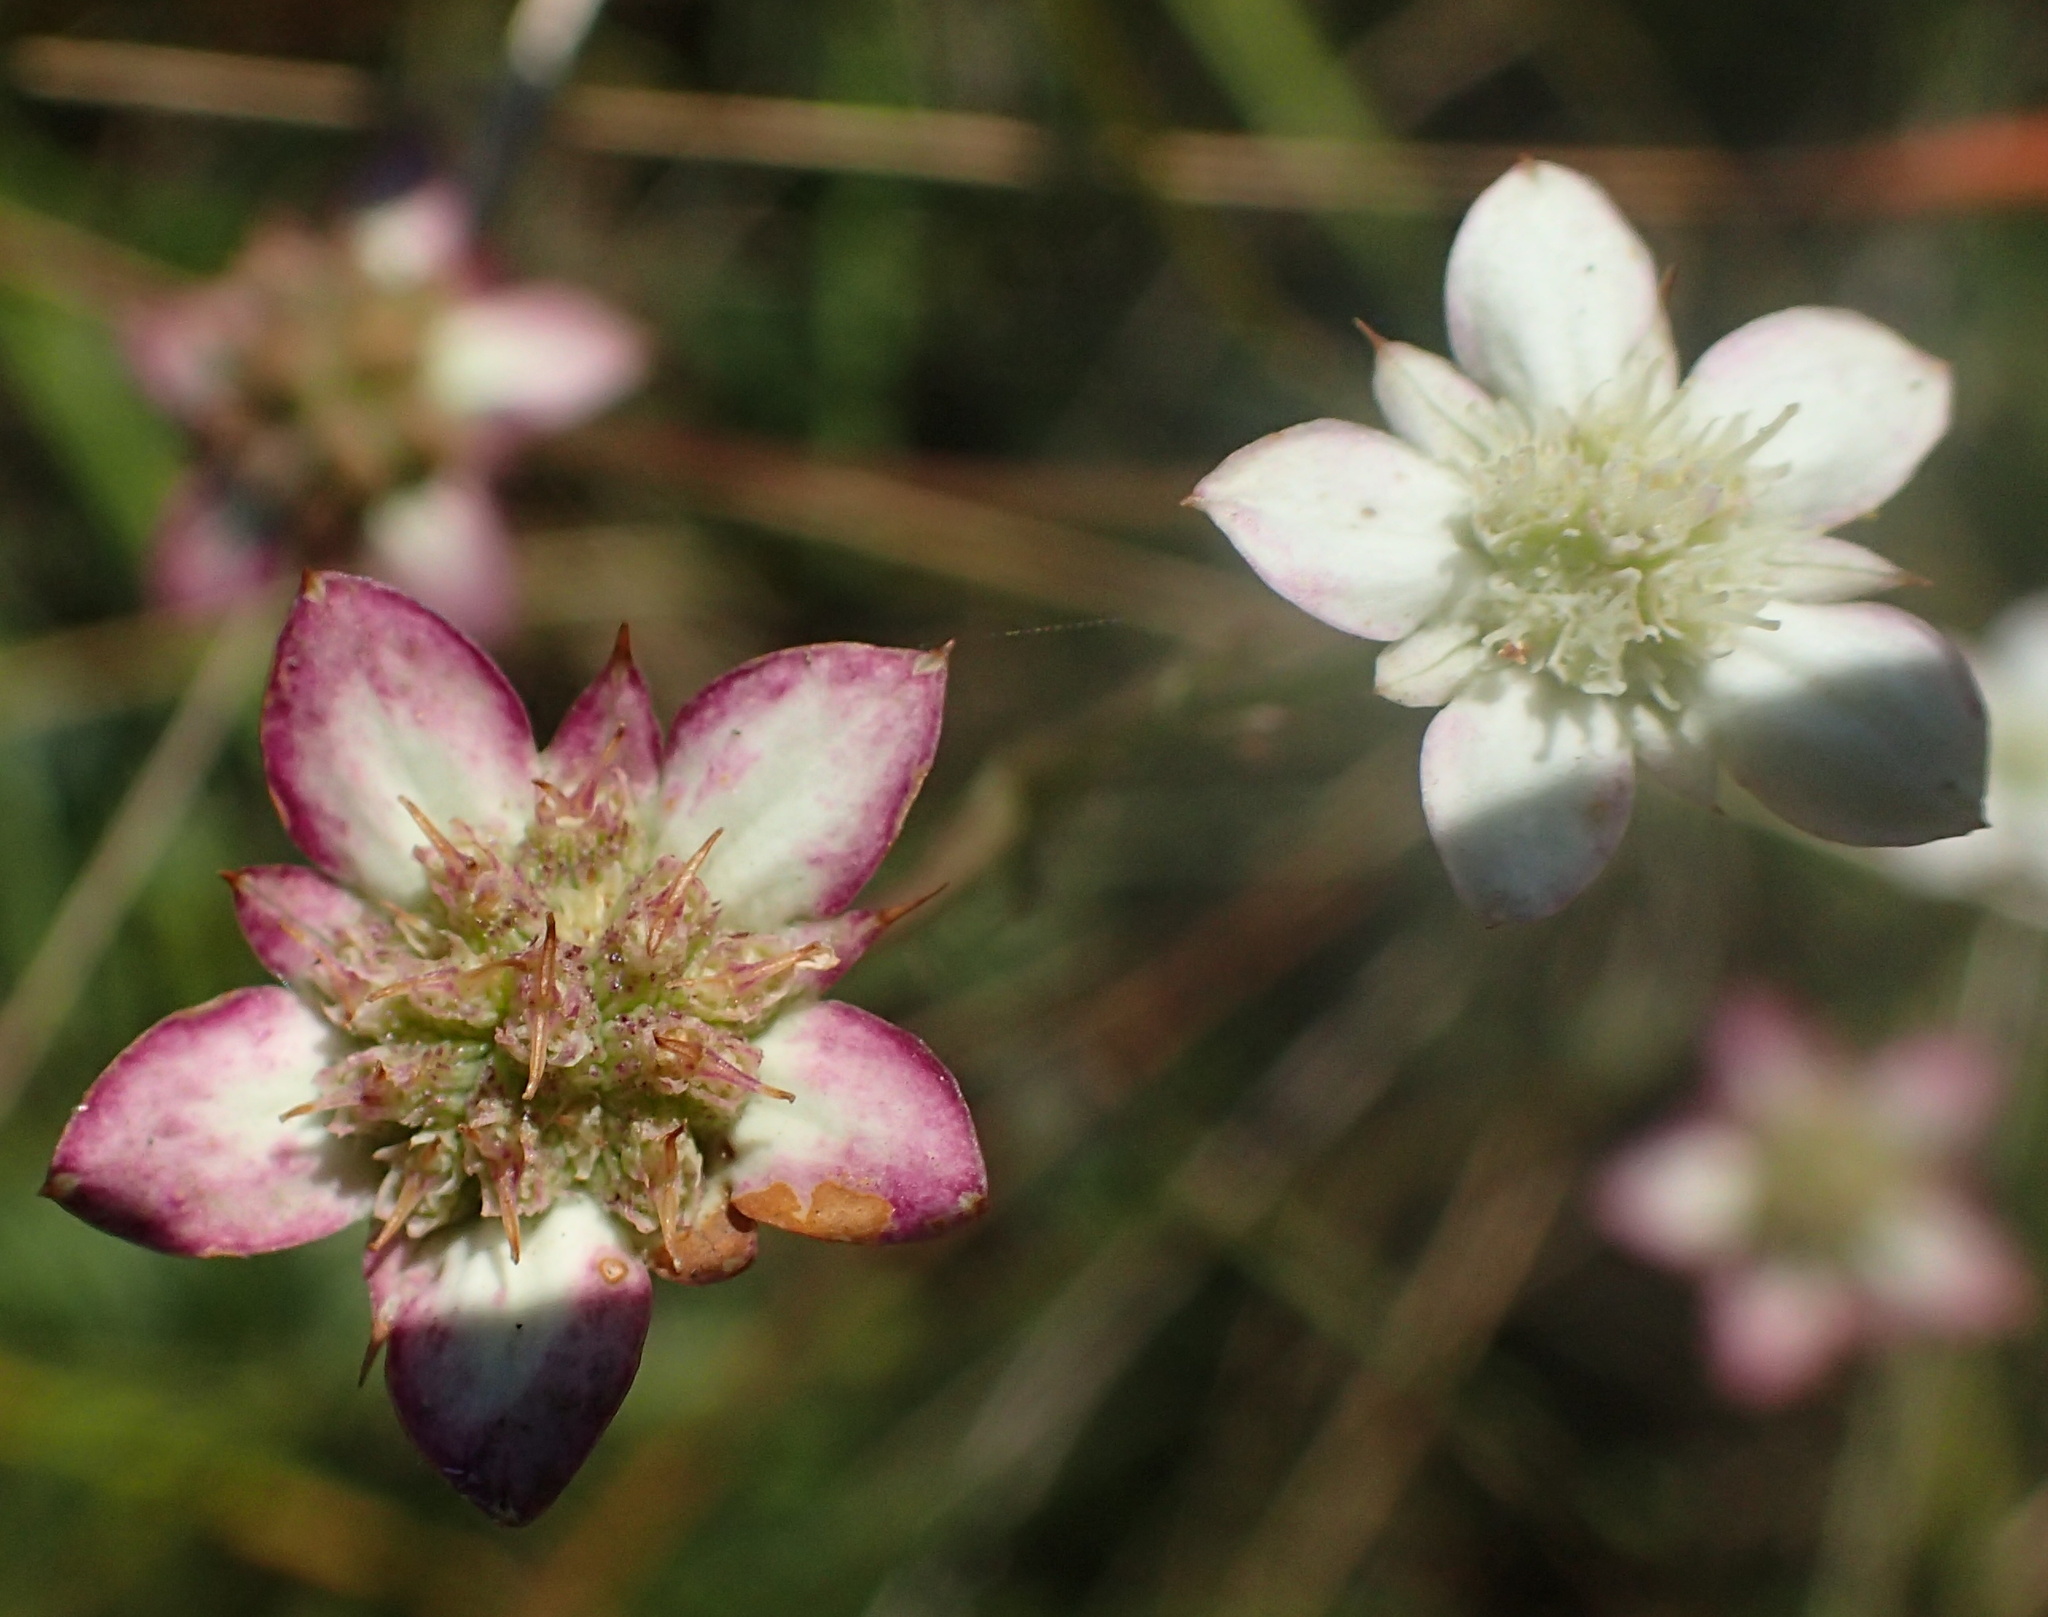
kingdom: Plantae
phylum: Tracheophyta
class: Magnoliopsida
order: Apiales
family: Apiaceae
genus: Alepidea
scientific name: Alepidea natalensis
